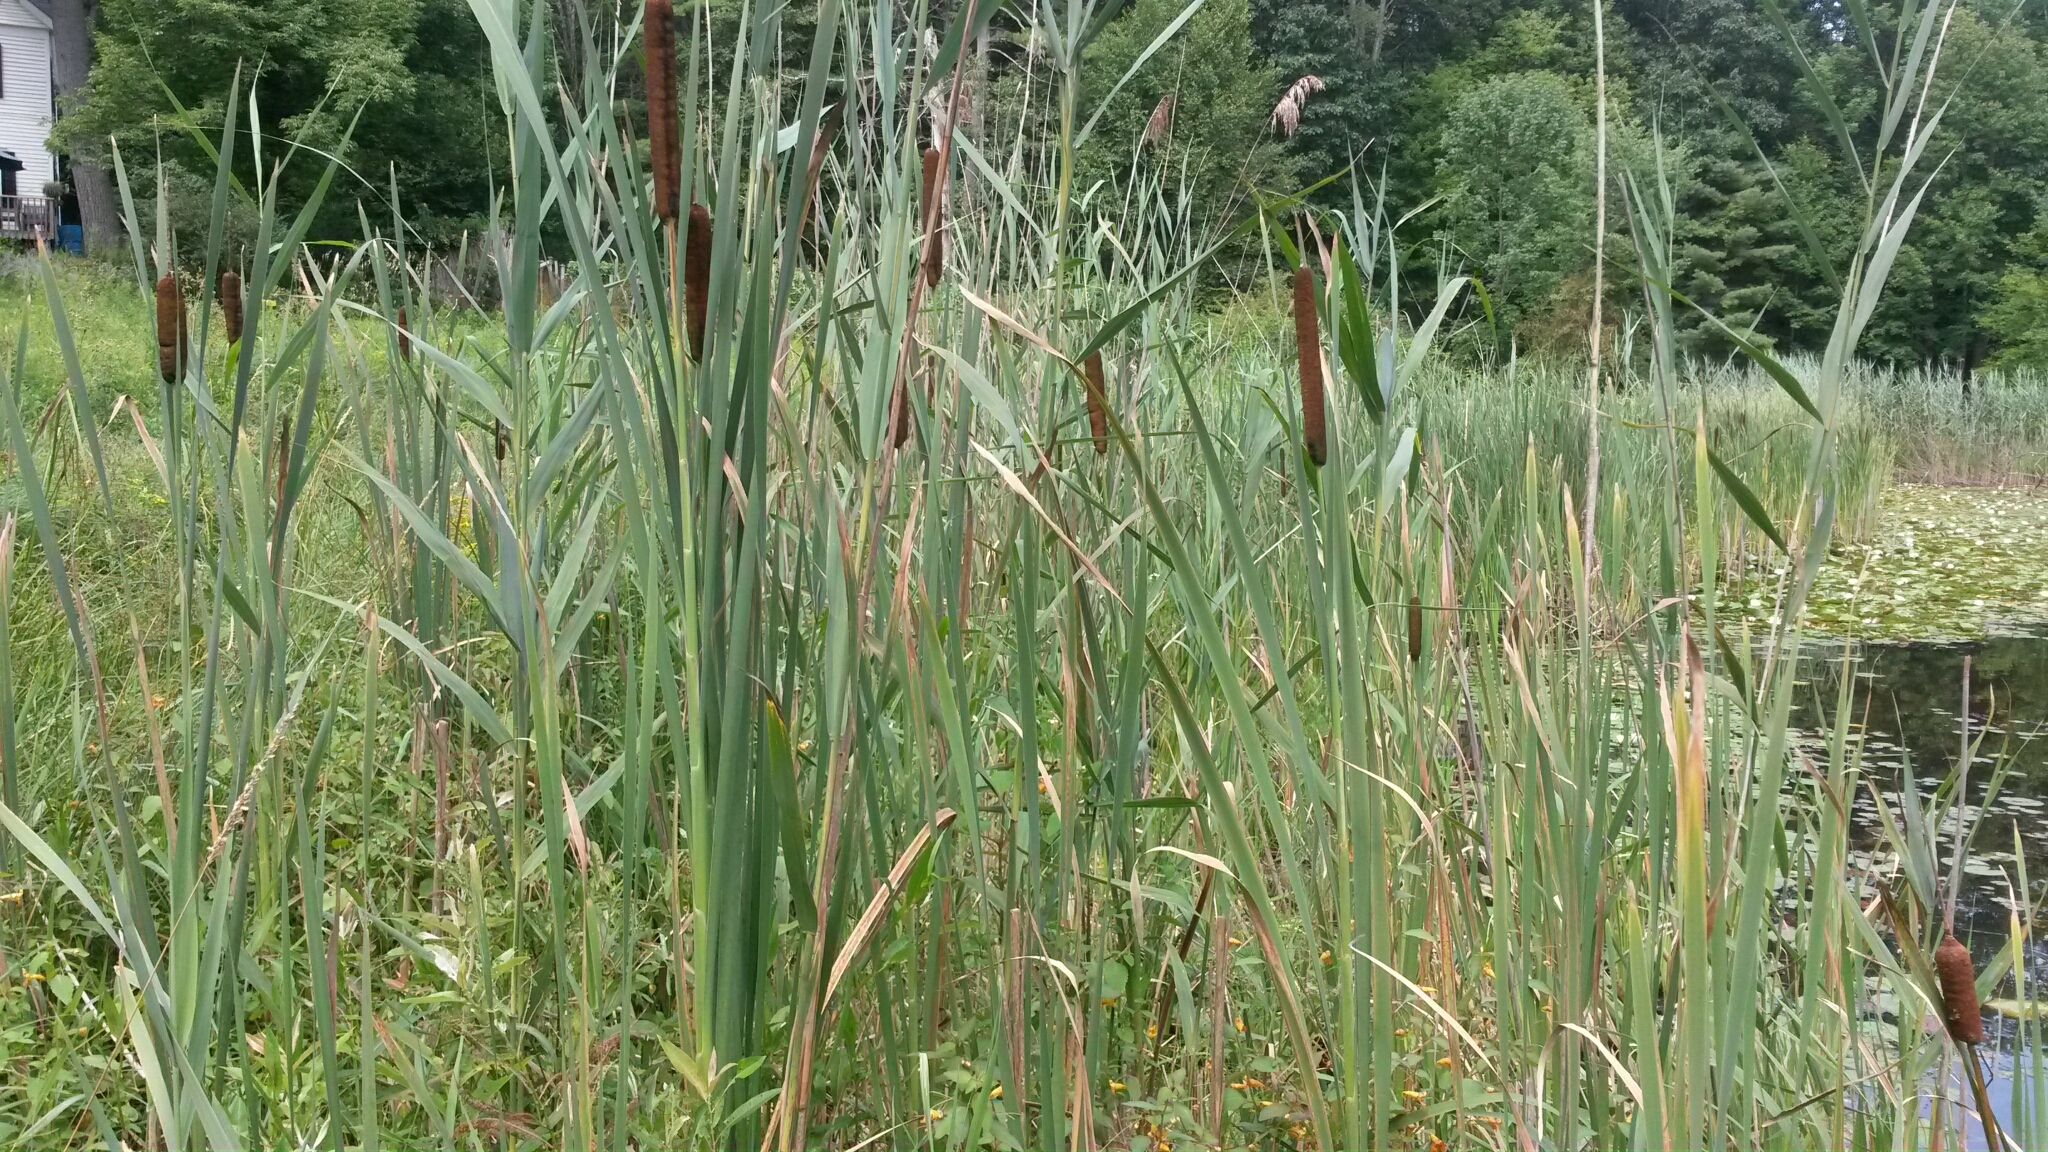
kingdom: Plantae
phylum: Tracheophyta
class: Liliopsida
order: Poales
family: Typhaceae
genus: Typha
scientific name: Typha latifolia
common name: Broadleaf cattail
